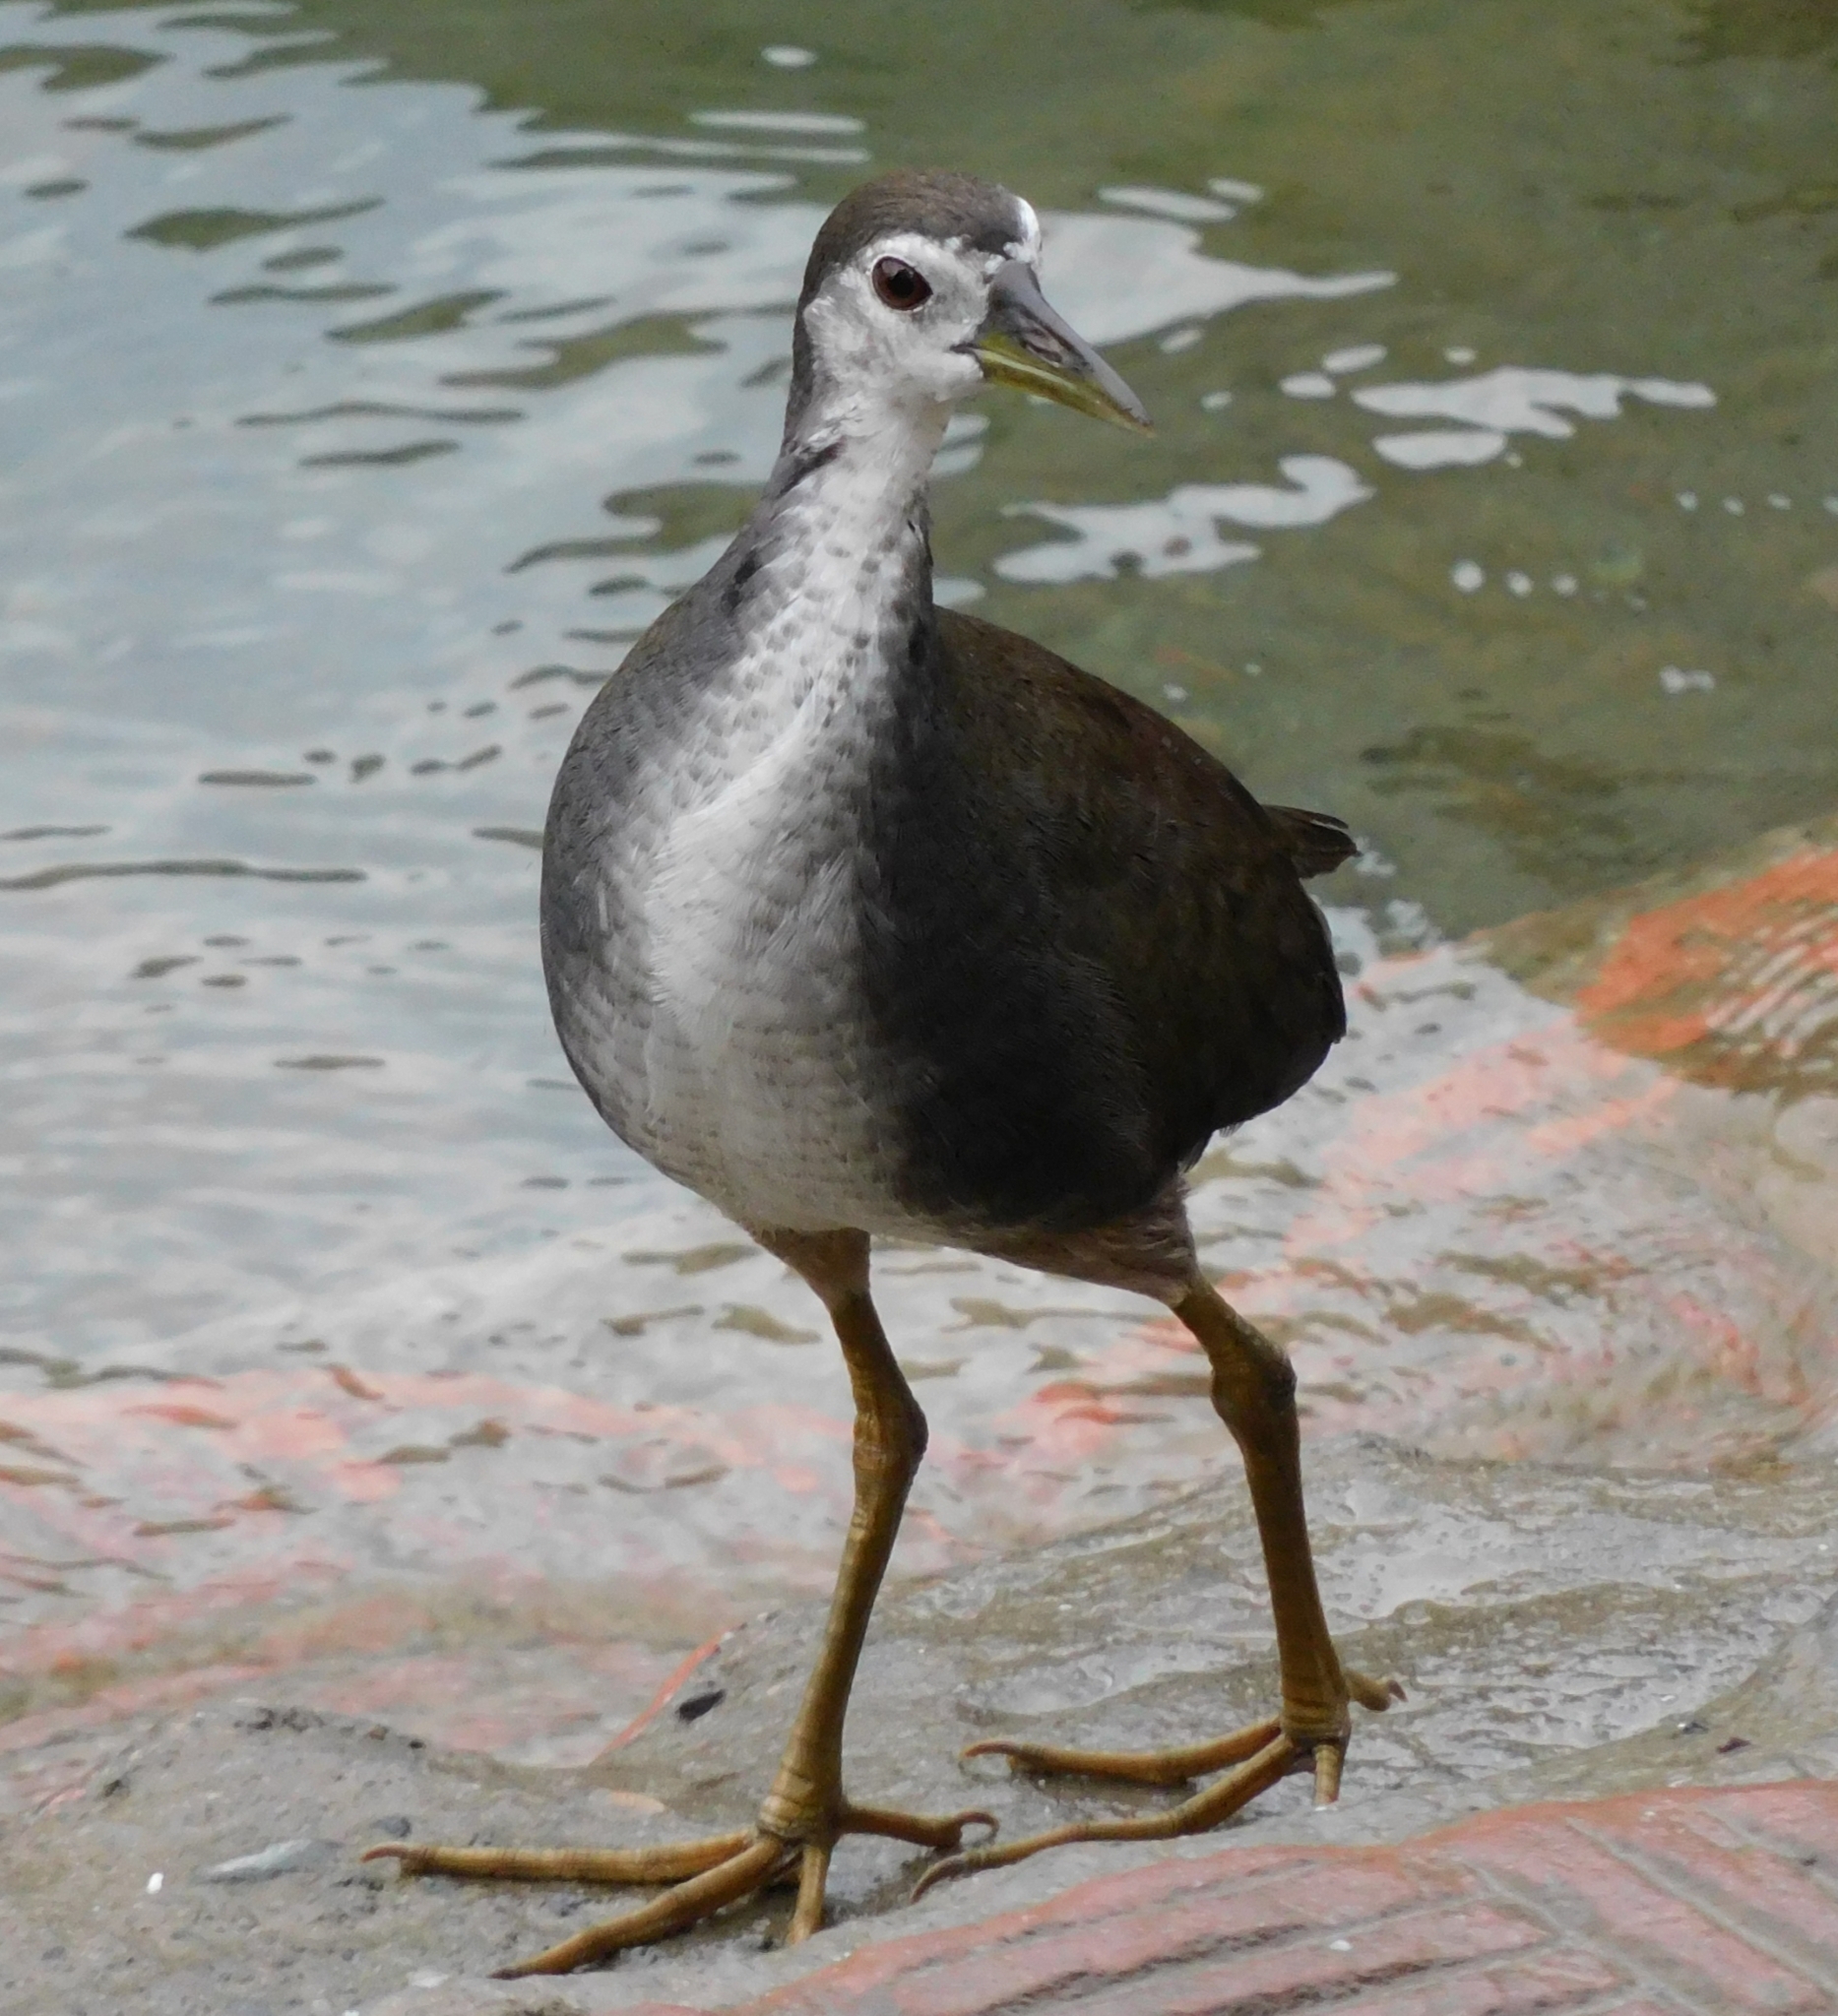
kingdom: Animalia
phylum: Chordata
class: Aves
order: Gruiformes
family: Rallidae
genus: Amaurornis
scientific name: Amaurornis phoenicurus
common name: White-breasted waterhen
